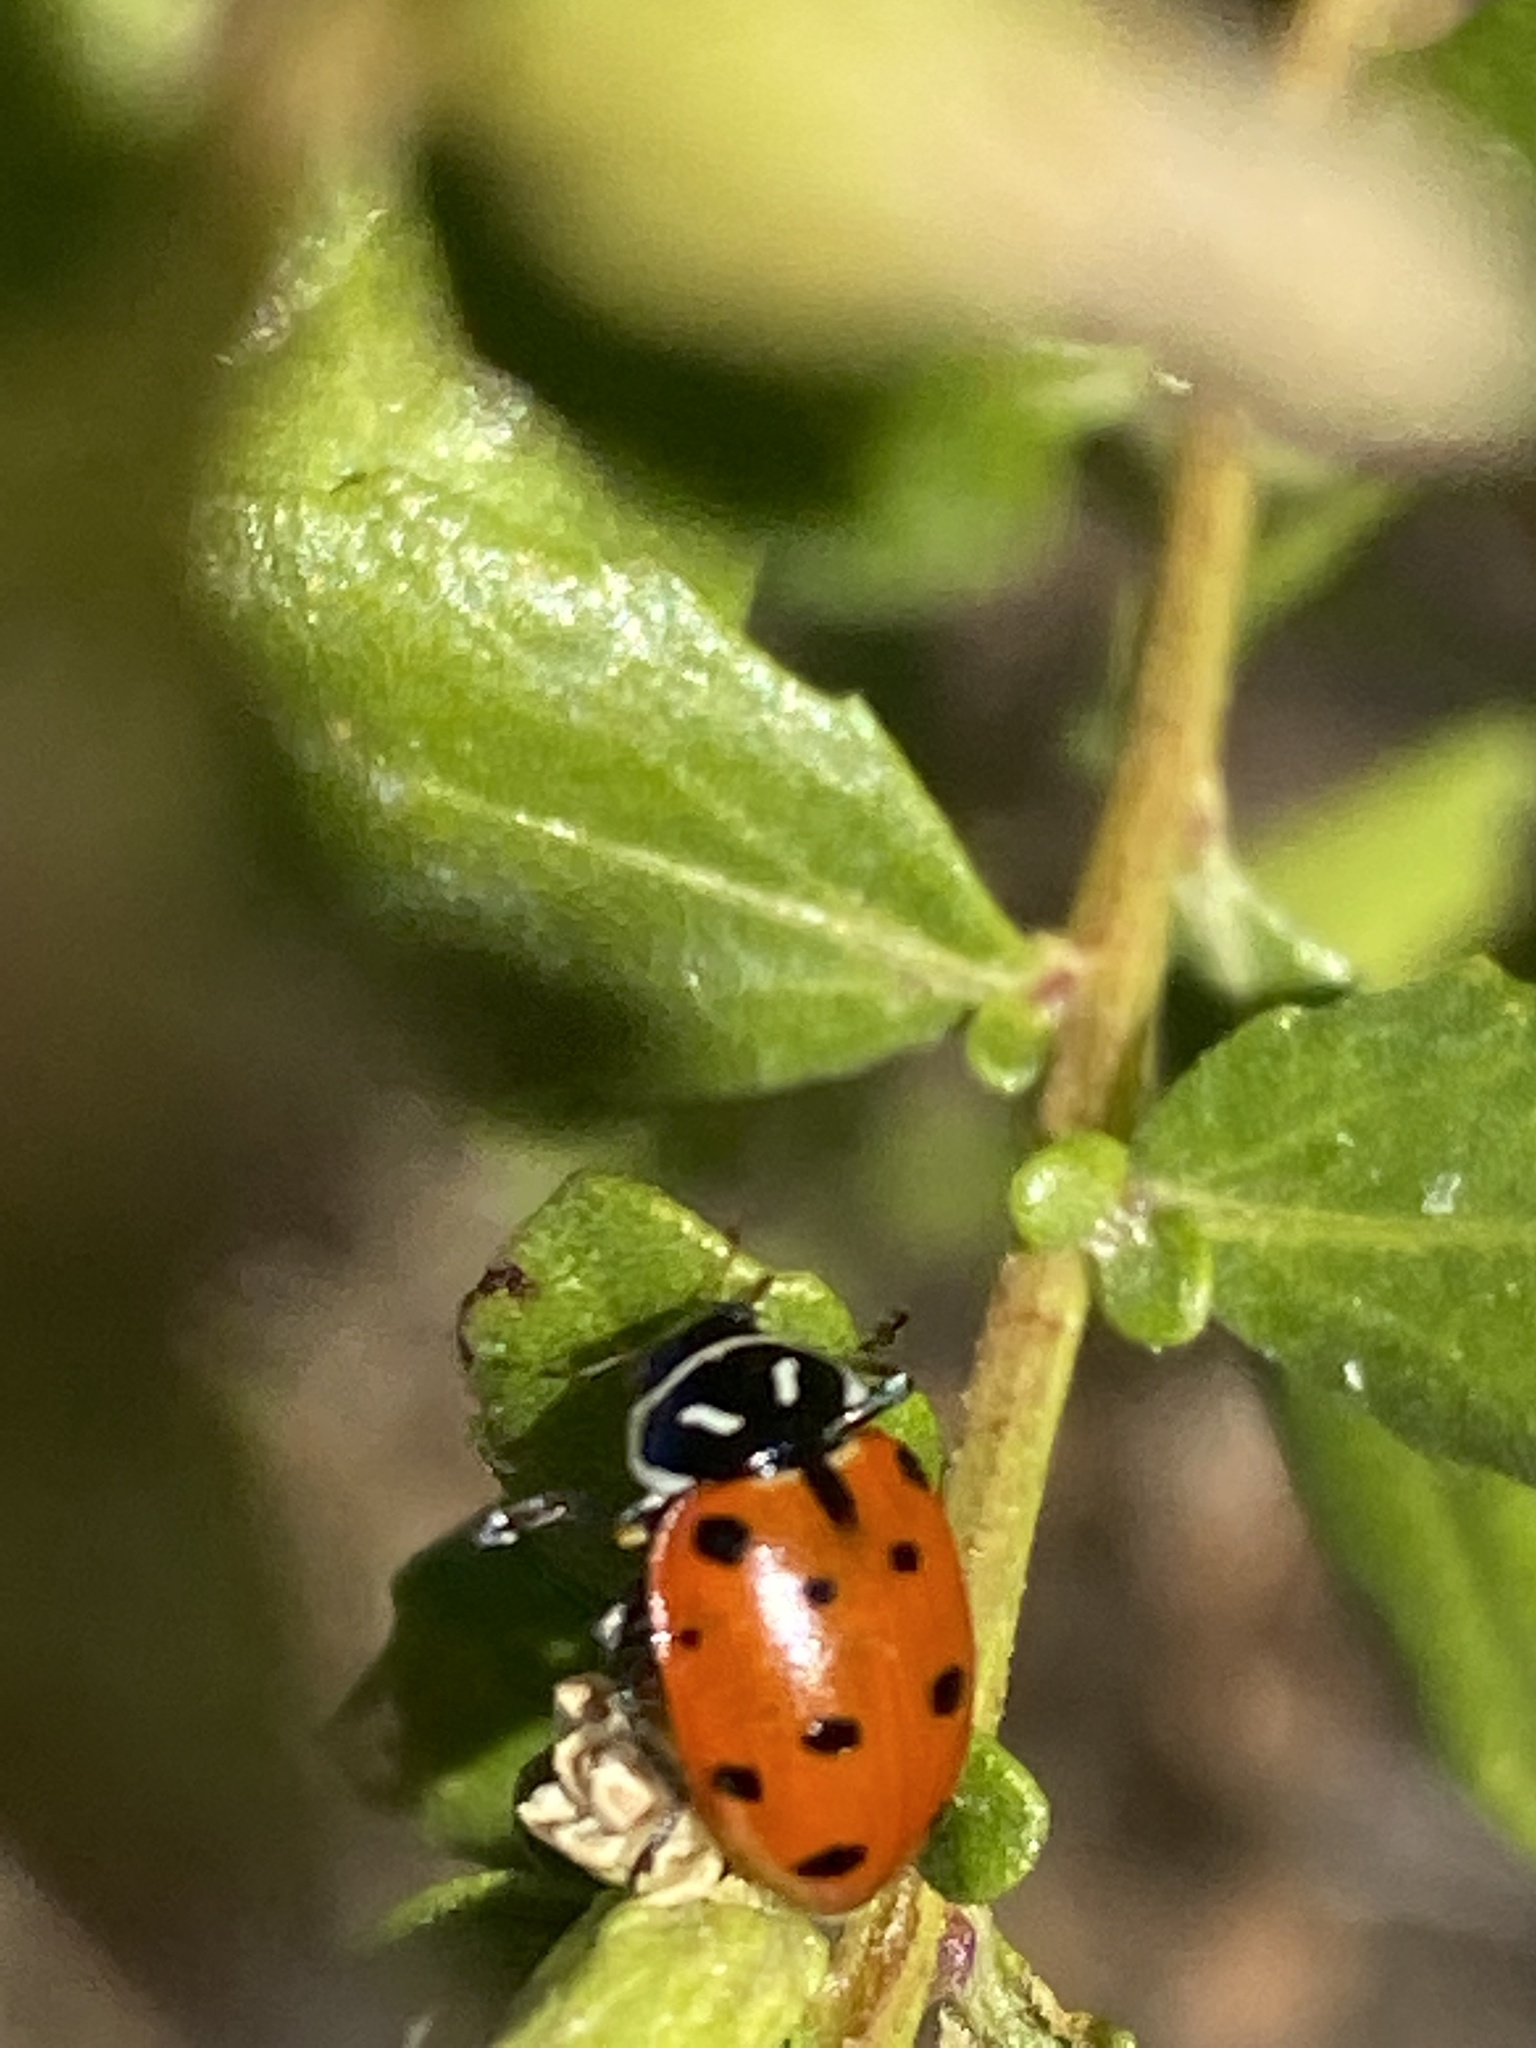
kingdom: Animalia
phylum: Arthropoda
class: Insecta
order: Coleoptera
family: Coccinellidae
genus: Hippodamia
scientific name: Hippodamia convergens
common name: Convergent lady beetle
